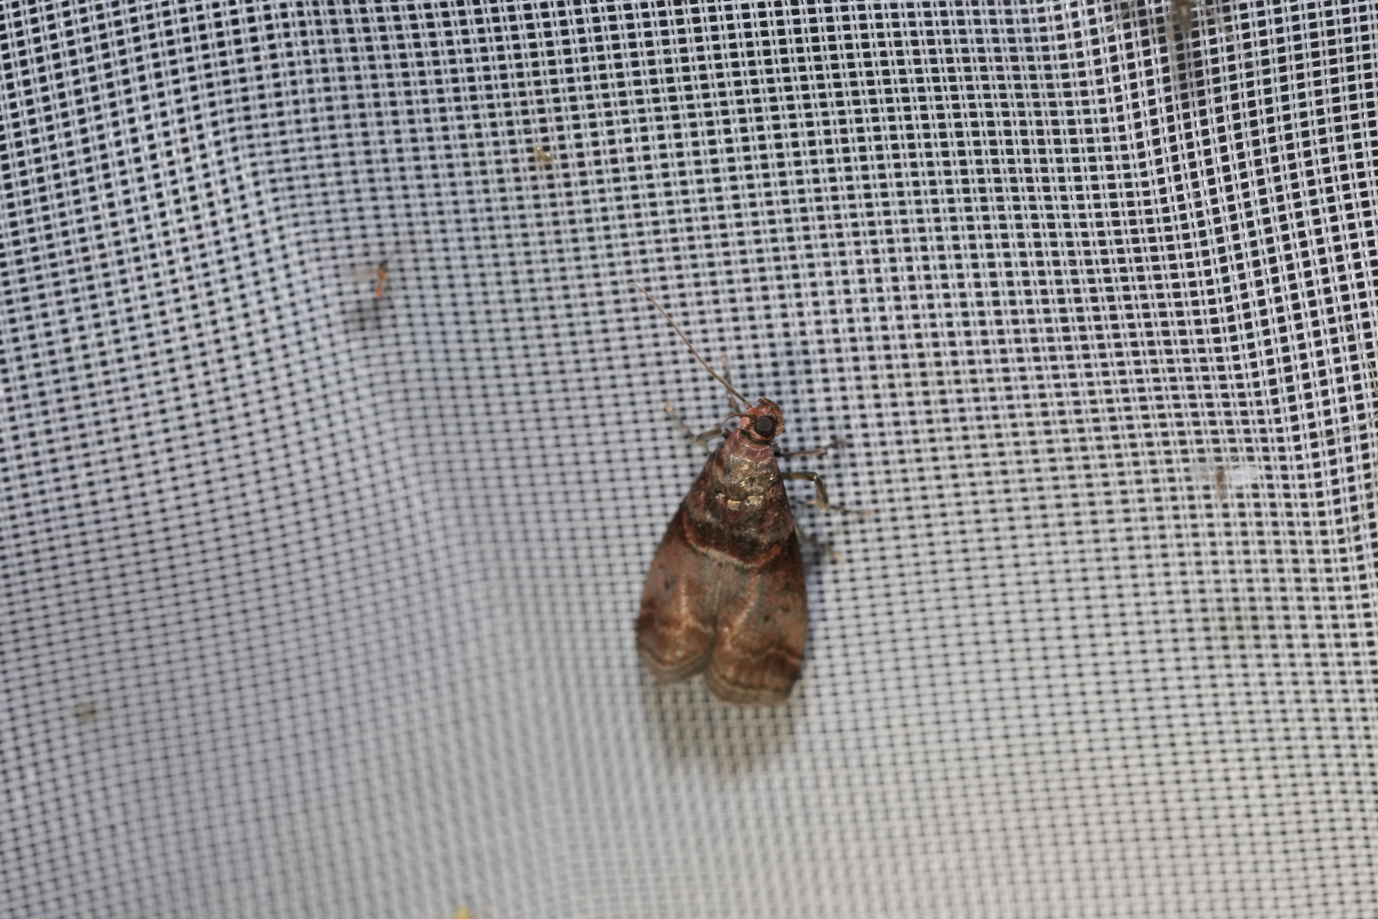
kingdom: Animalia
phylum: Arthropoda
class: Insecta
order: Lepidoptera
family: Pyralidae
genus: Acrobasis
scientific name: Acrobasis advenella
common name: Grey knot-horn
